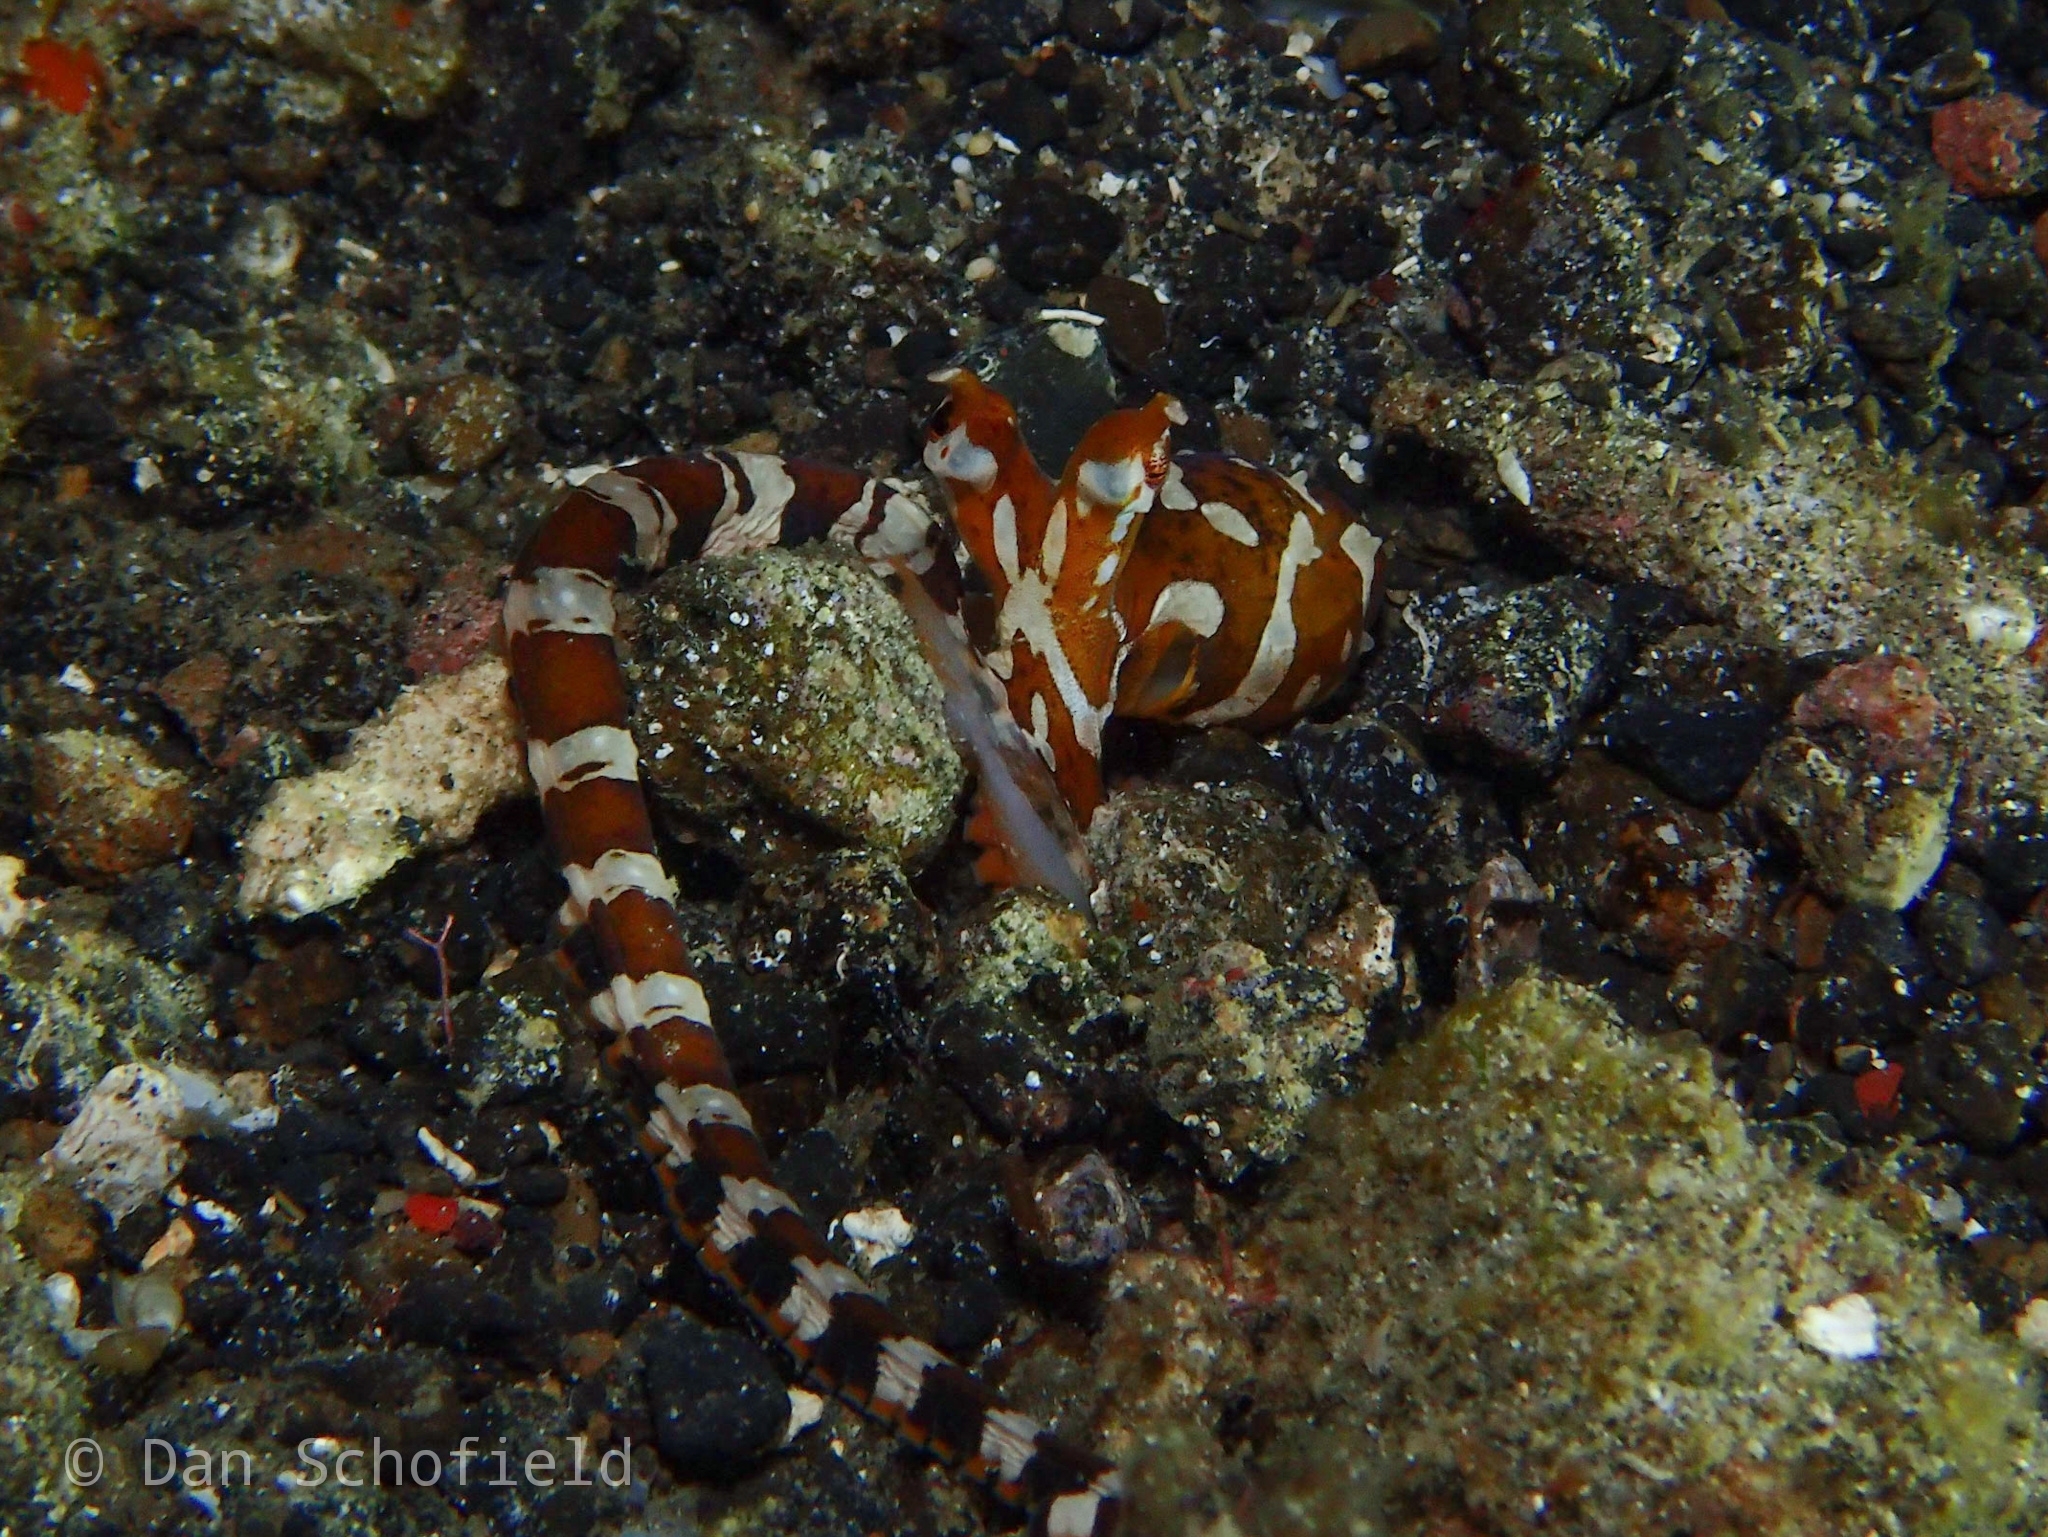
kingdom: Animalia
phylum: Mollusca
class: Cephalopoda
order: Octopoda
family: Octopodidae
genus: Wunderpus
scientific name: Wunderpus photogenicus
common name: Wunderpus
